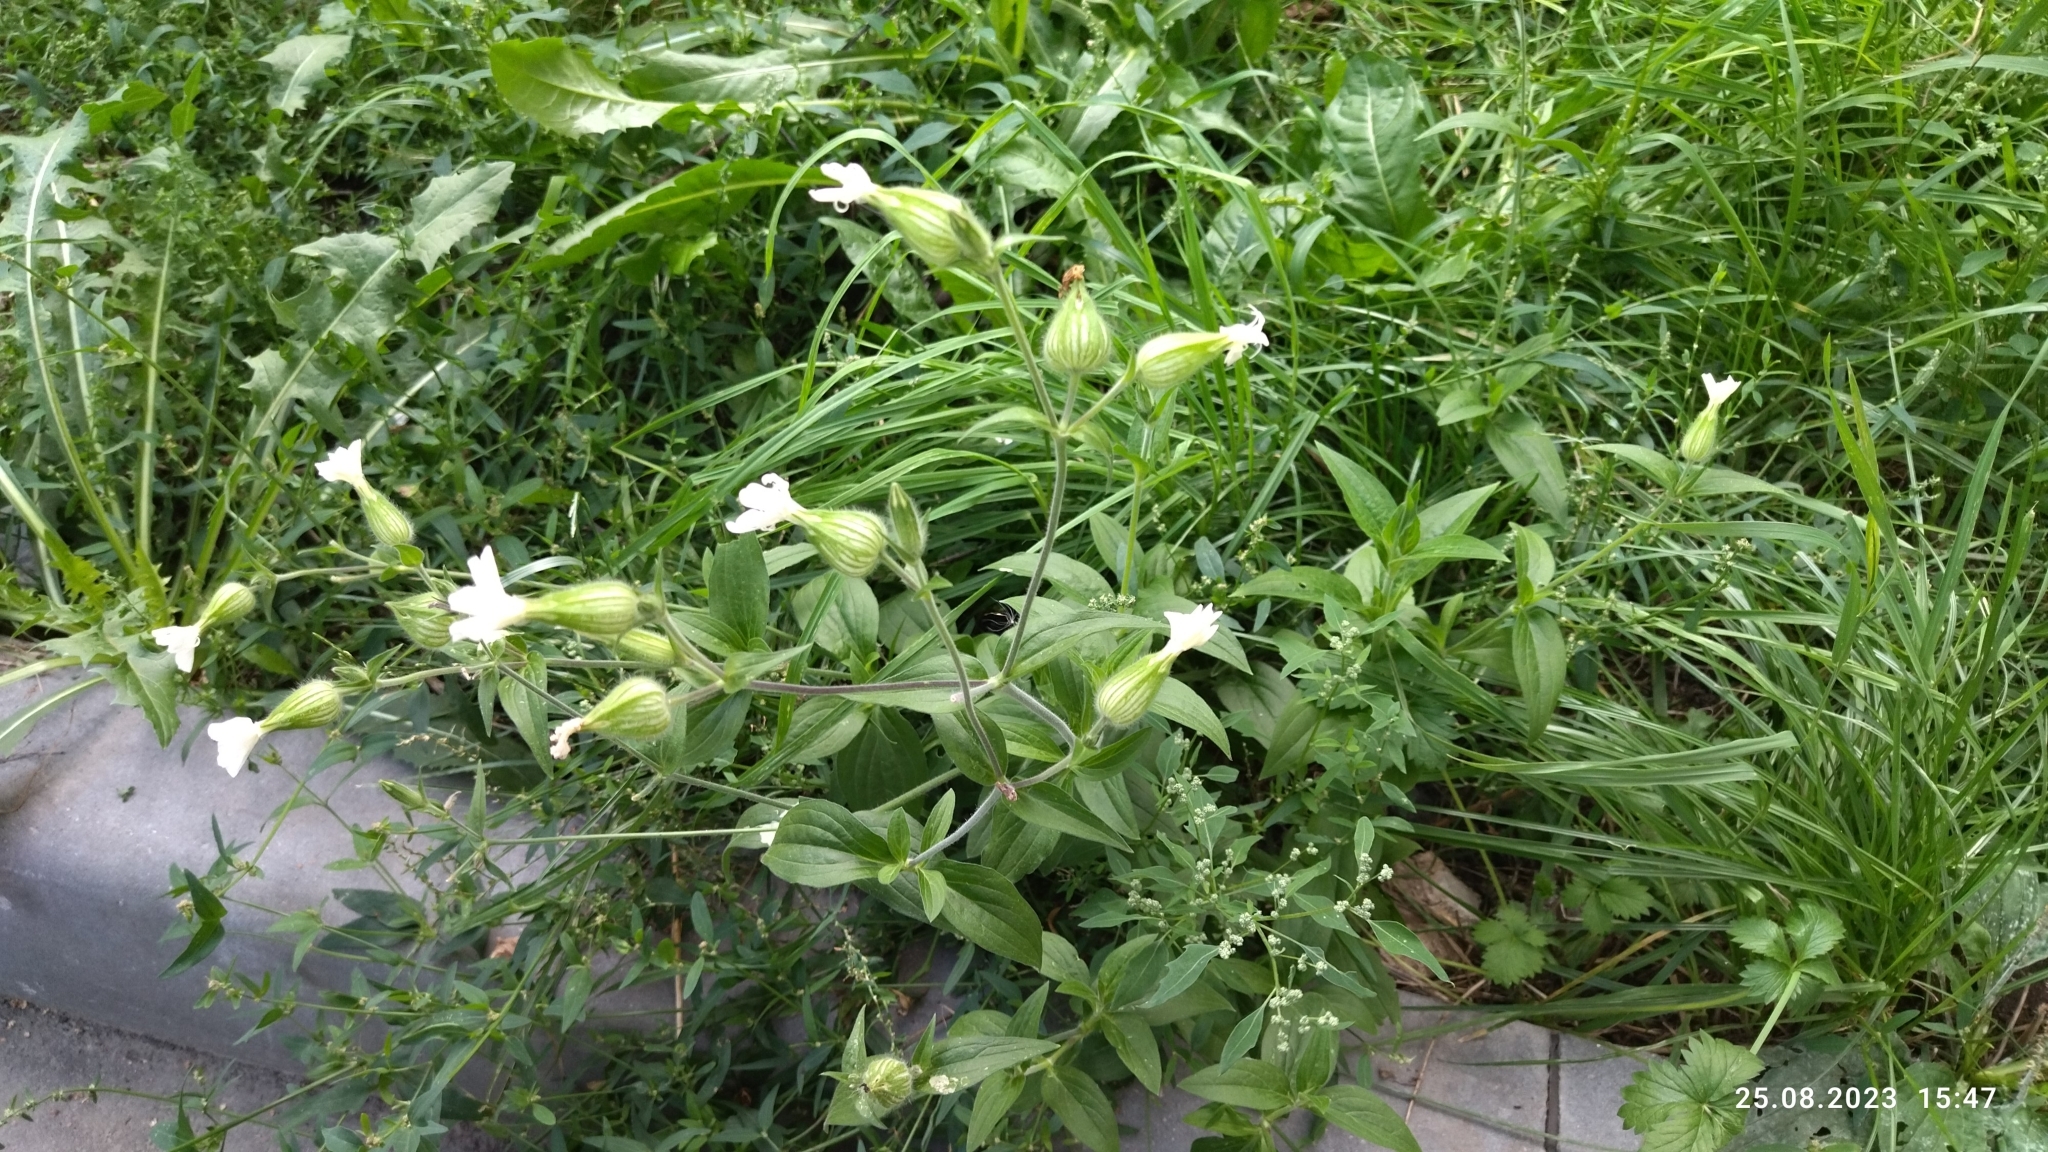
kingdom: Plantae
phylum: Tracheophyta
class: Magnoliopsida
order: Caryophyllales
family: Caryophyllaceae
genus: Silene
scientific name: Silene latifolia
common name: White campion
